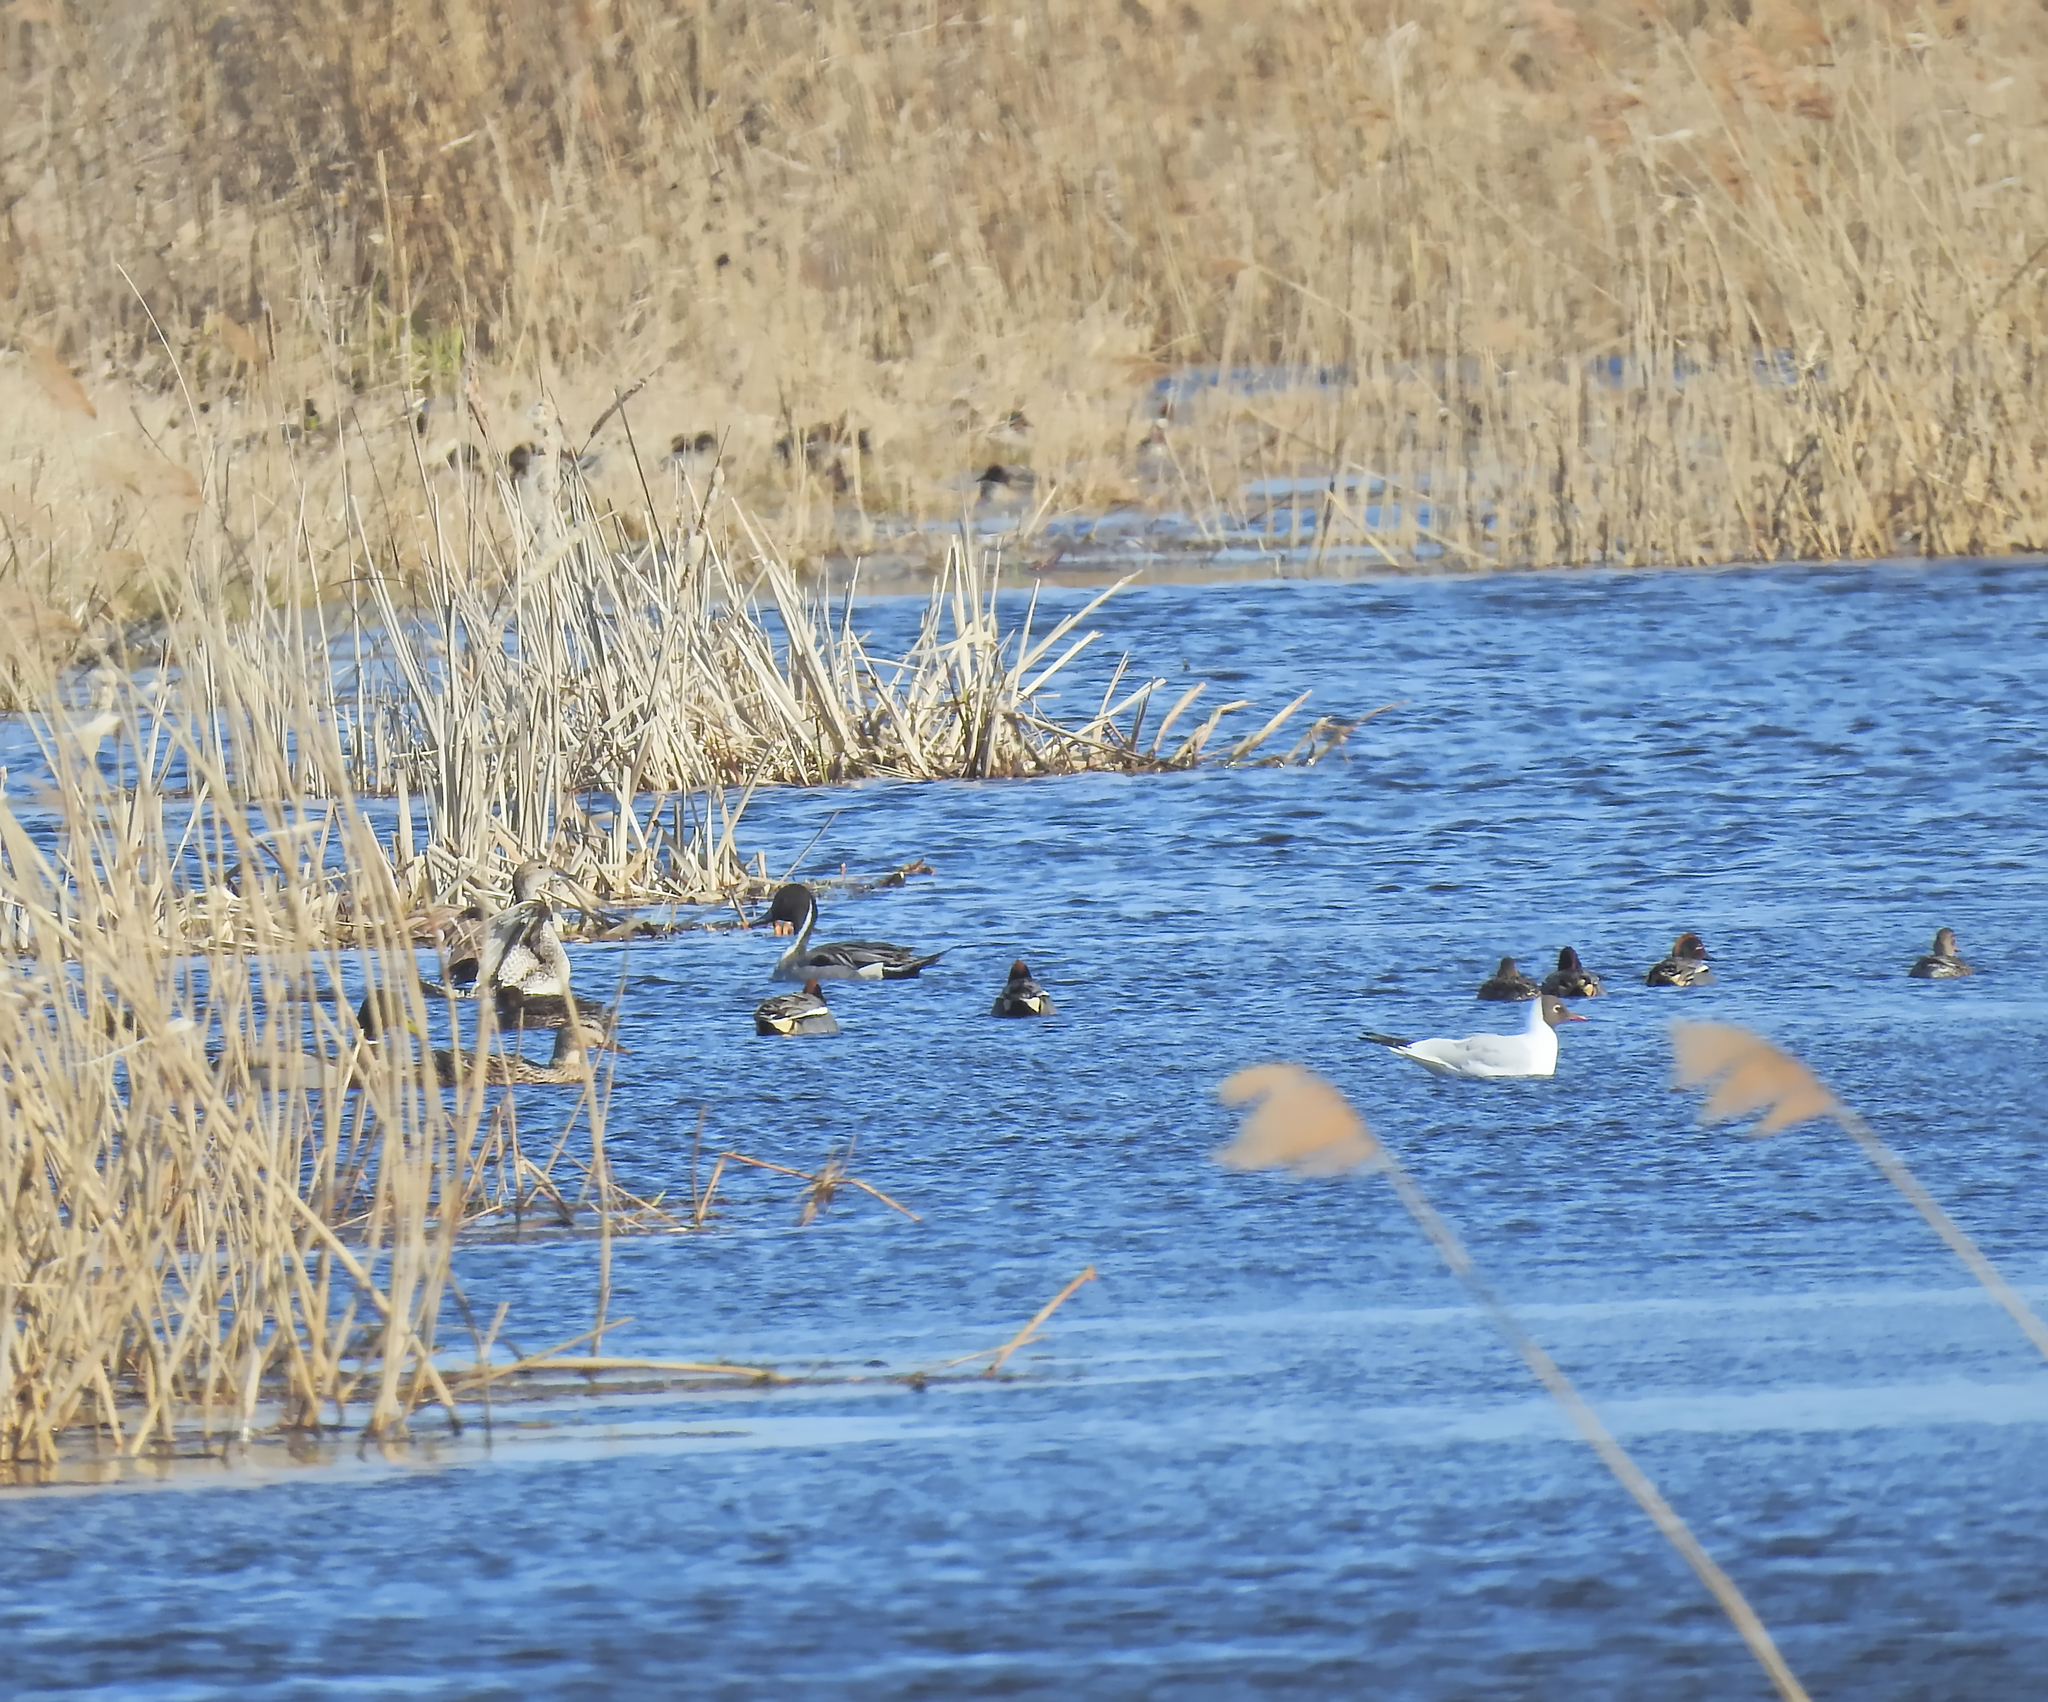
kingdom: Animalia
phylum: Chordata
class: Aves
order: Anseriformes
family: Anatidae
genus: Anas
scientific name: Anas acuta
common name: Northern pintail
